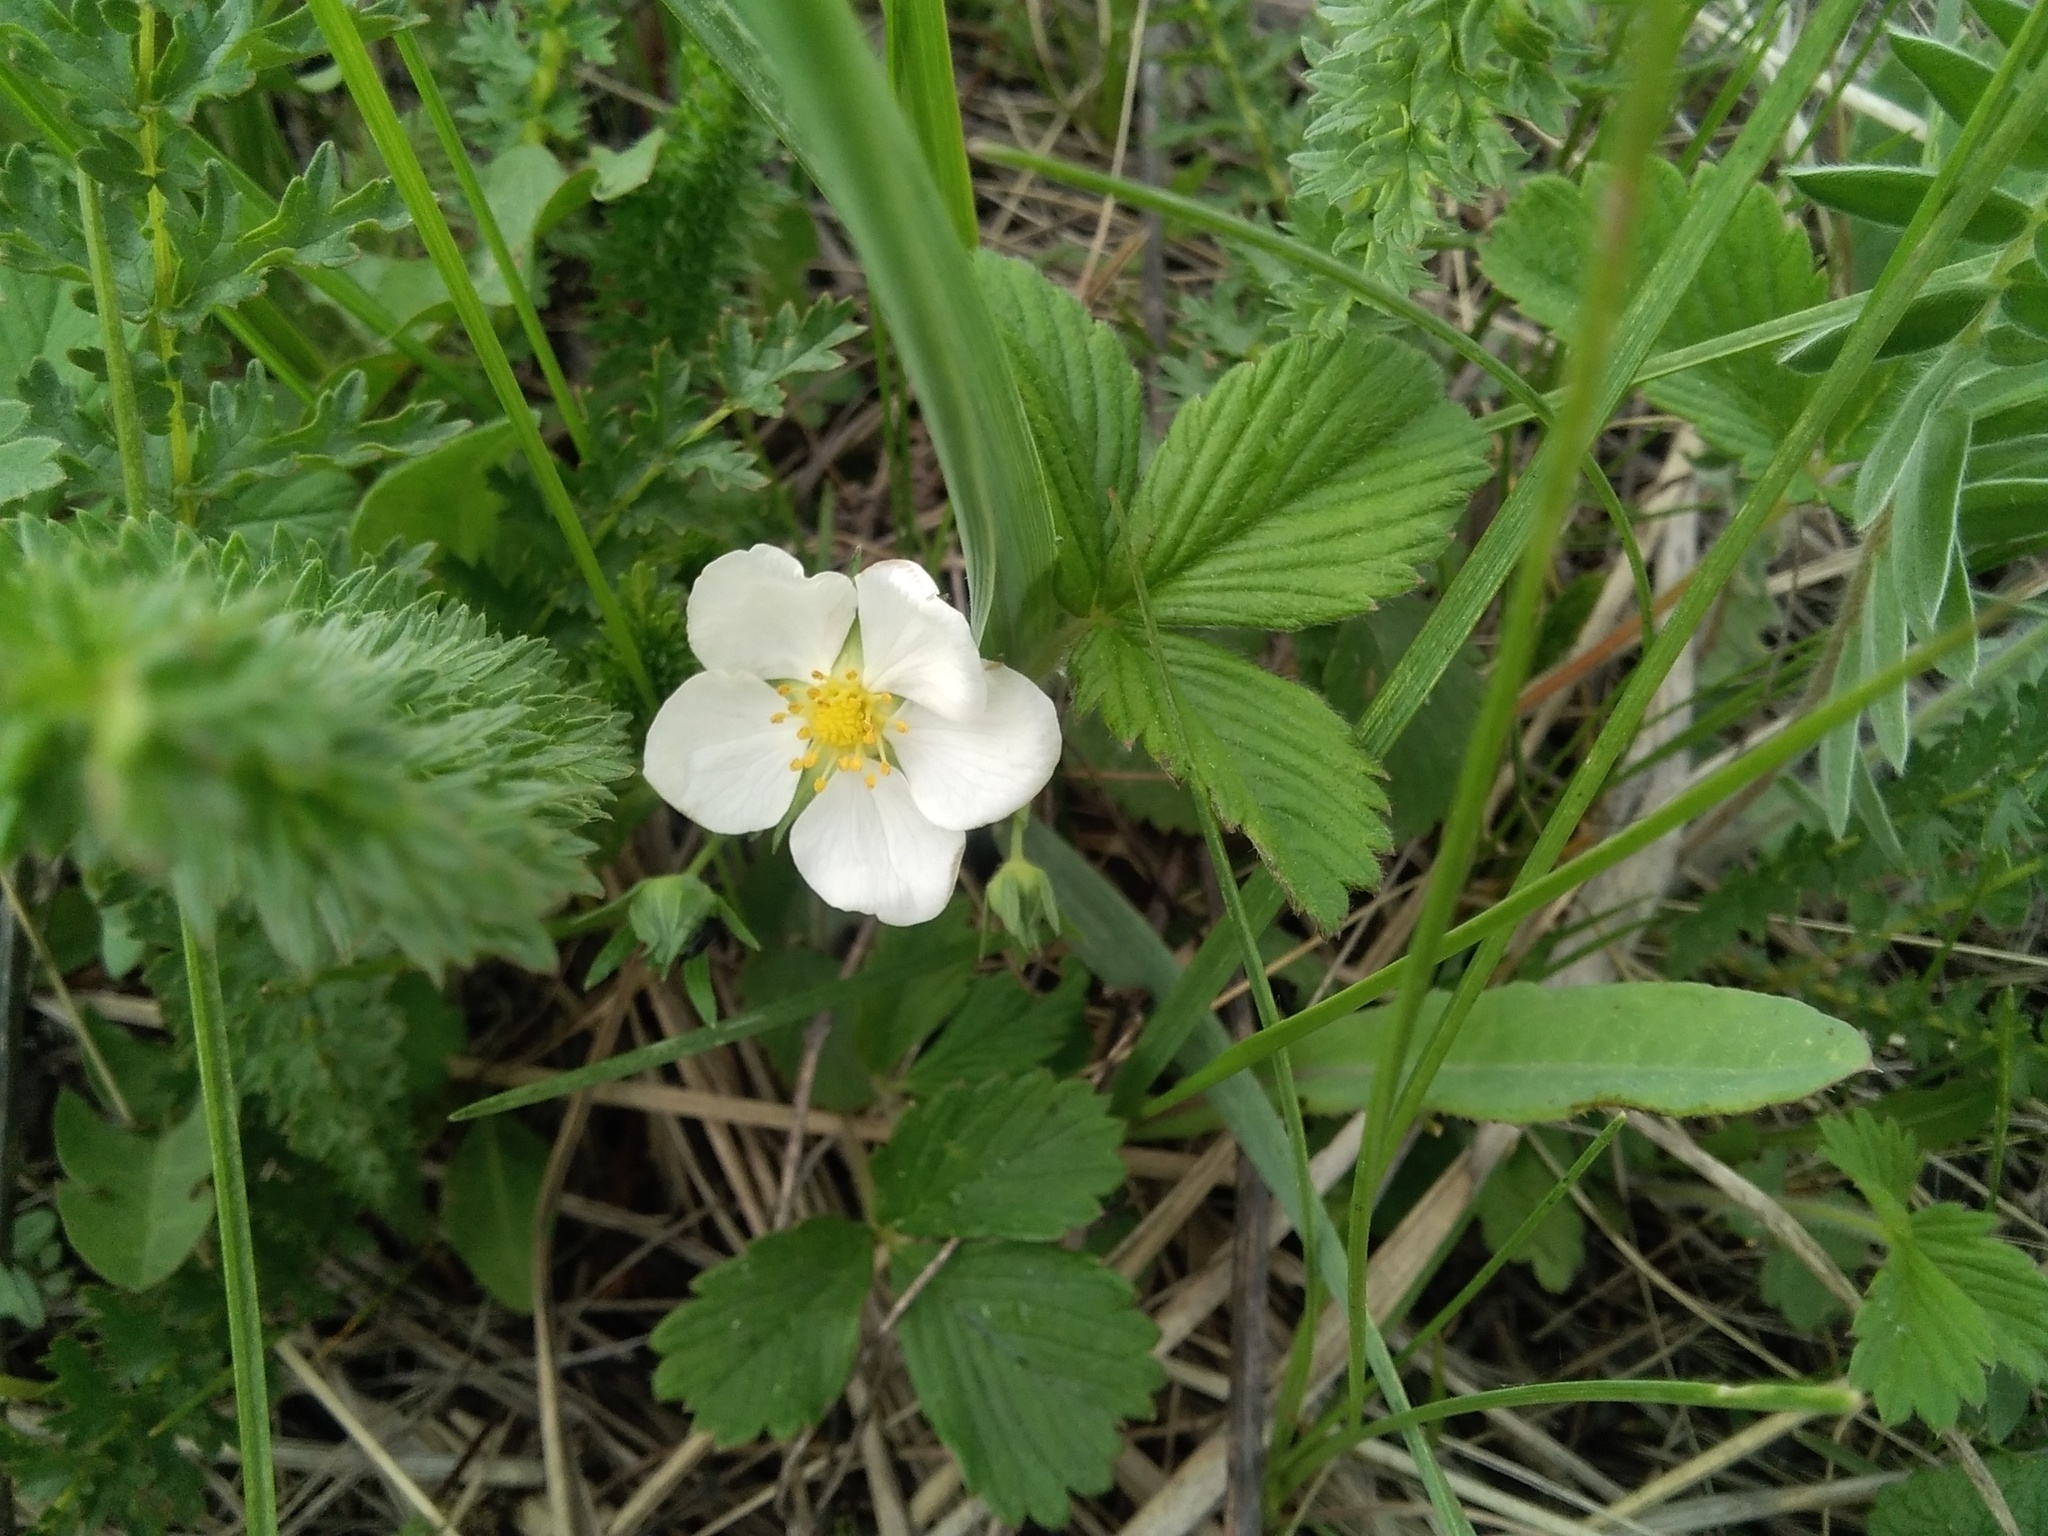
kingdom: Plantae
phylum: Tracheophyta
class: Magnoliopsida
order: Rosales
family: Rosaceae
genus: Fragaria
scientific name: Fragaria viridis
